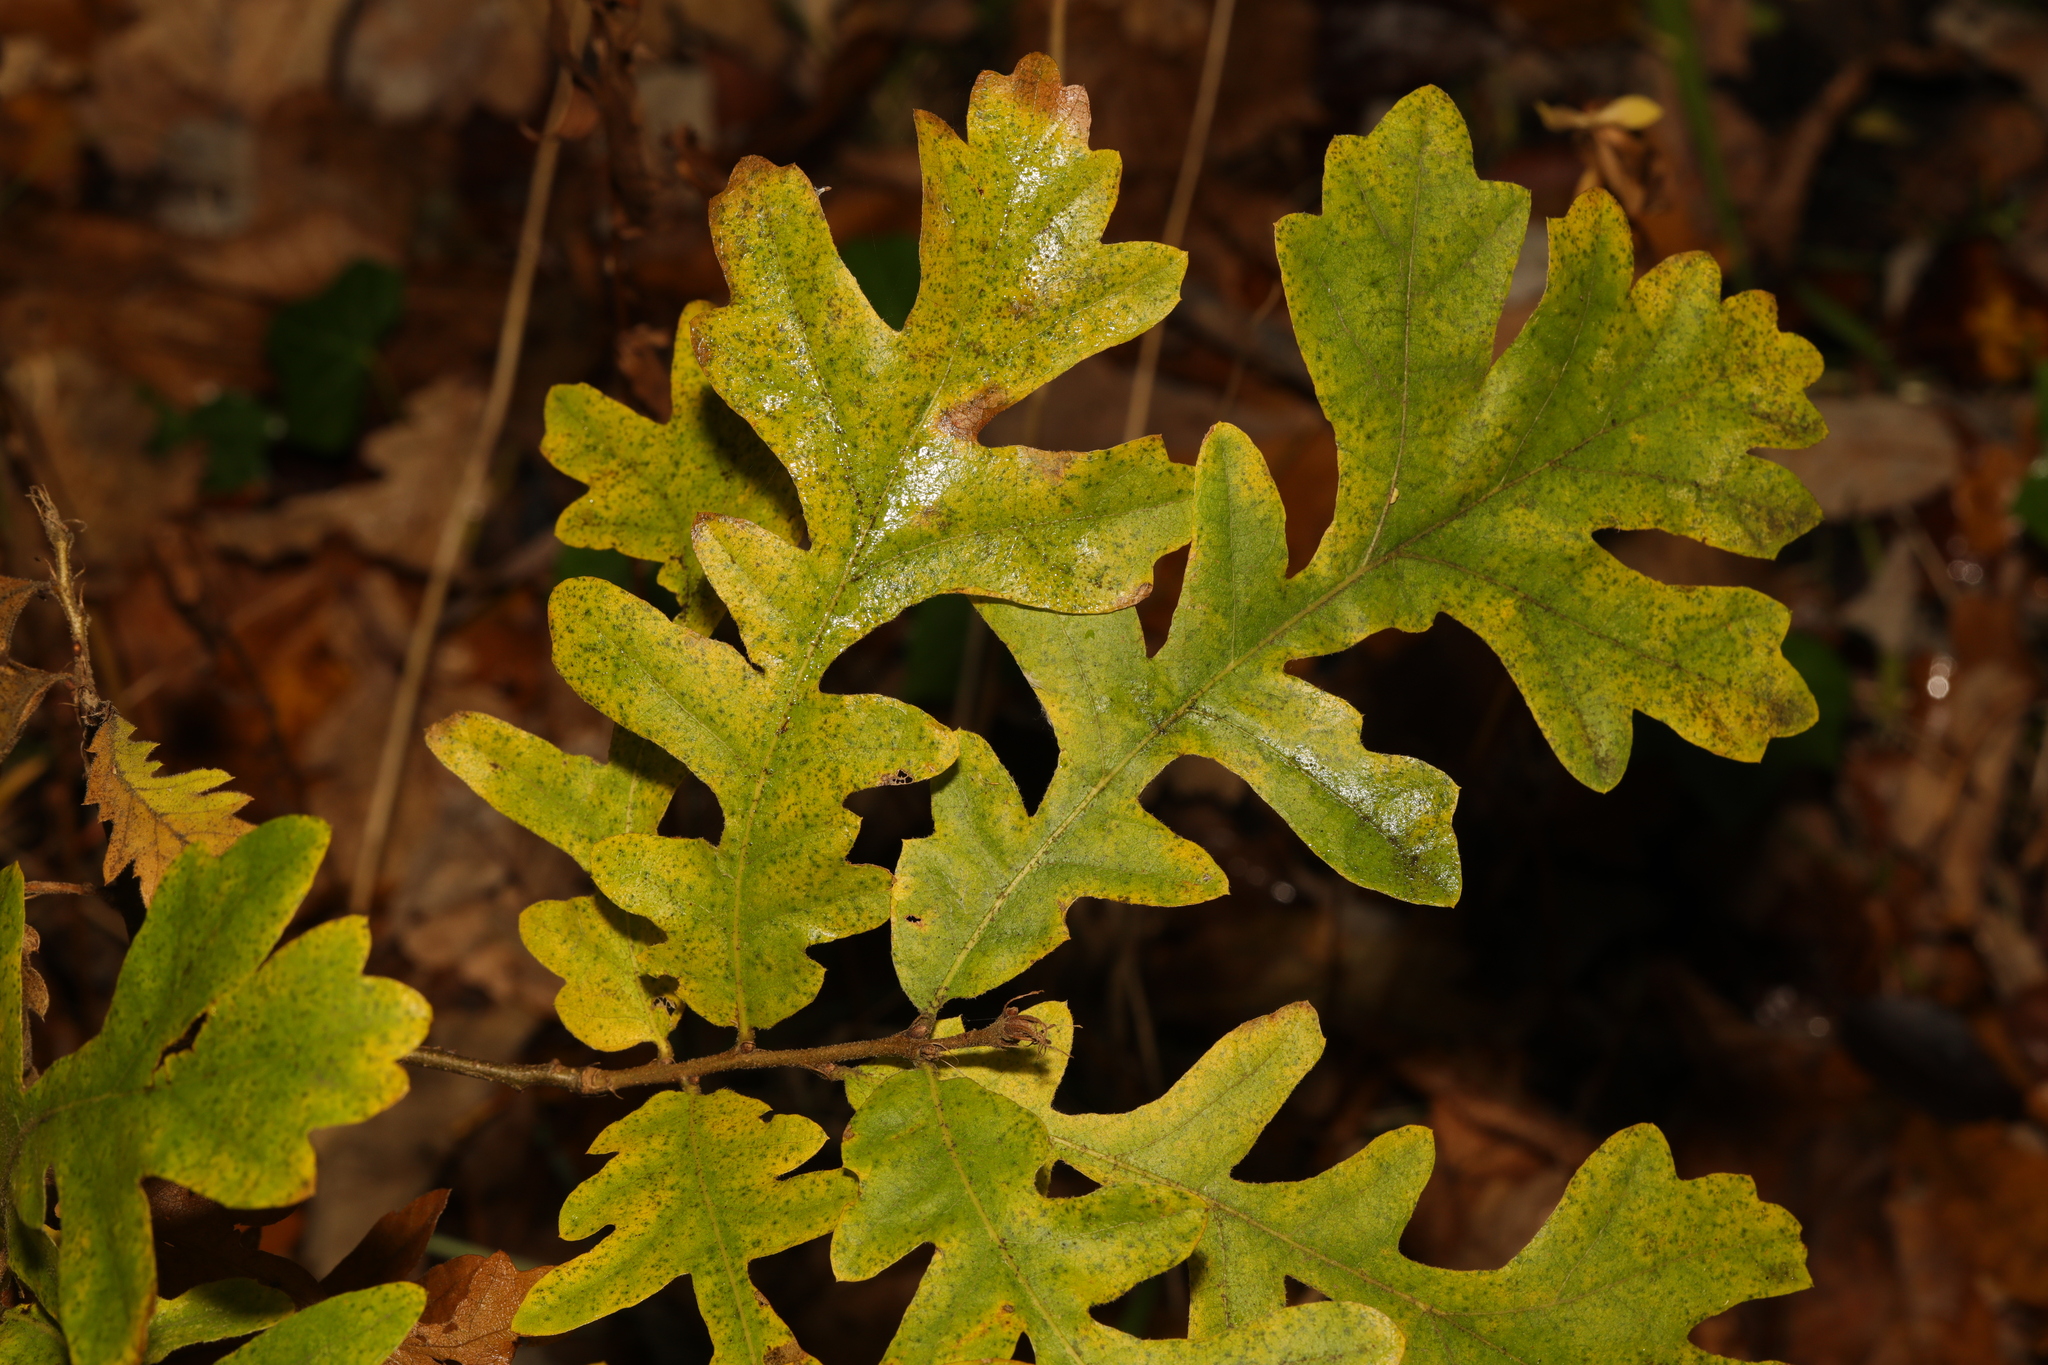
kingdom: Plantae
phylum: Tracheophyta
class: Magnoliopsida
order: Fagales
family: Fagaceae
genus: Quercus
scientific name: Quercus cerris
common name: Turkey oak
